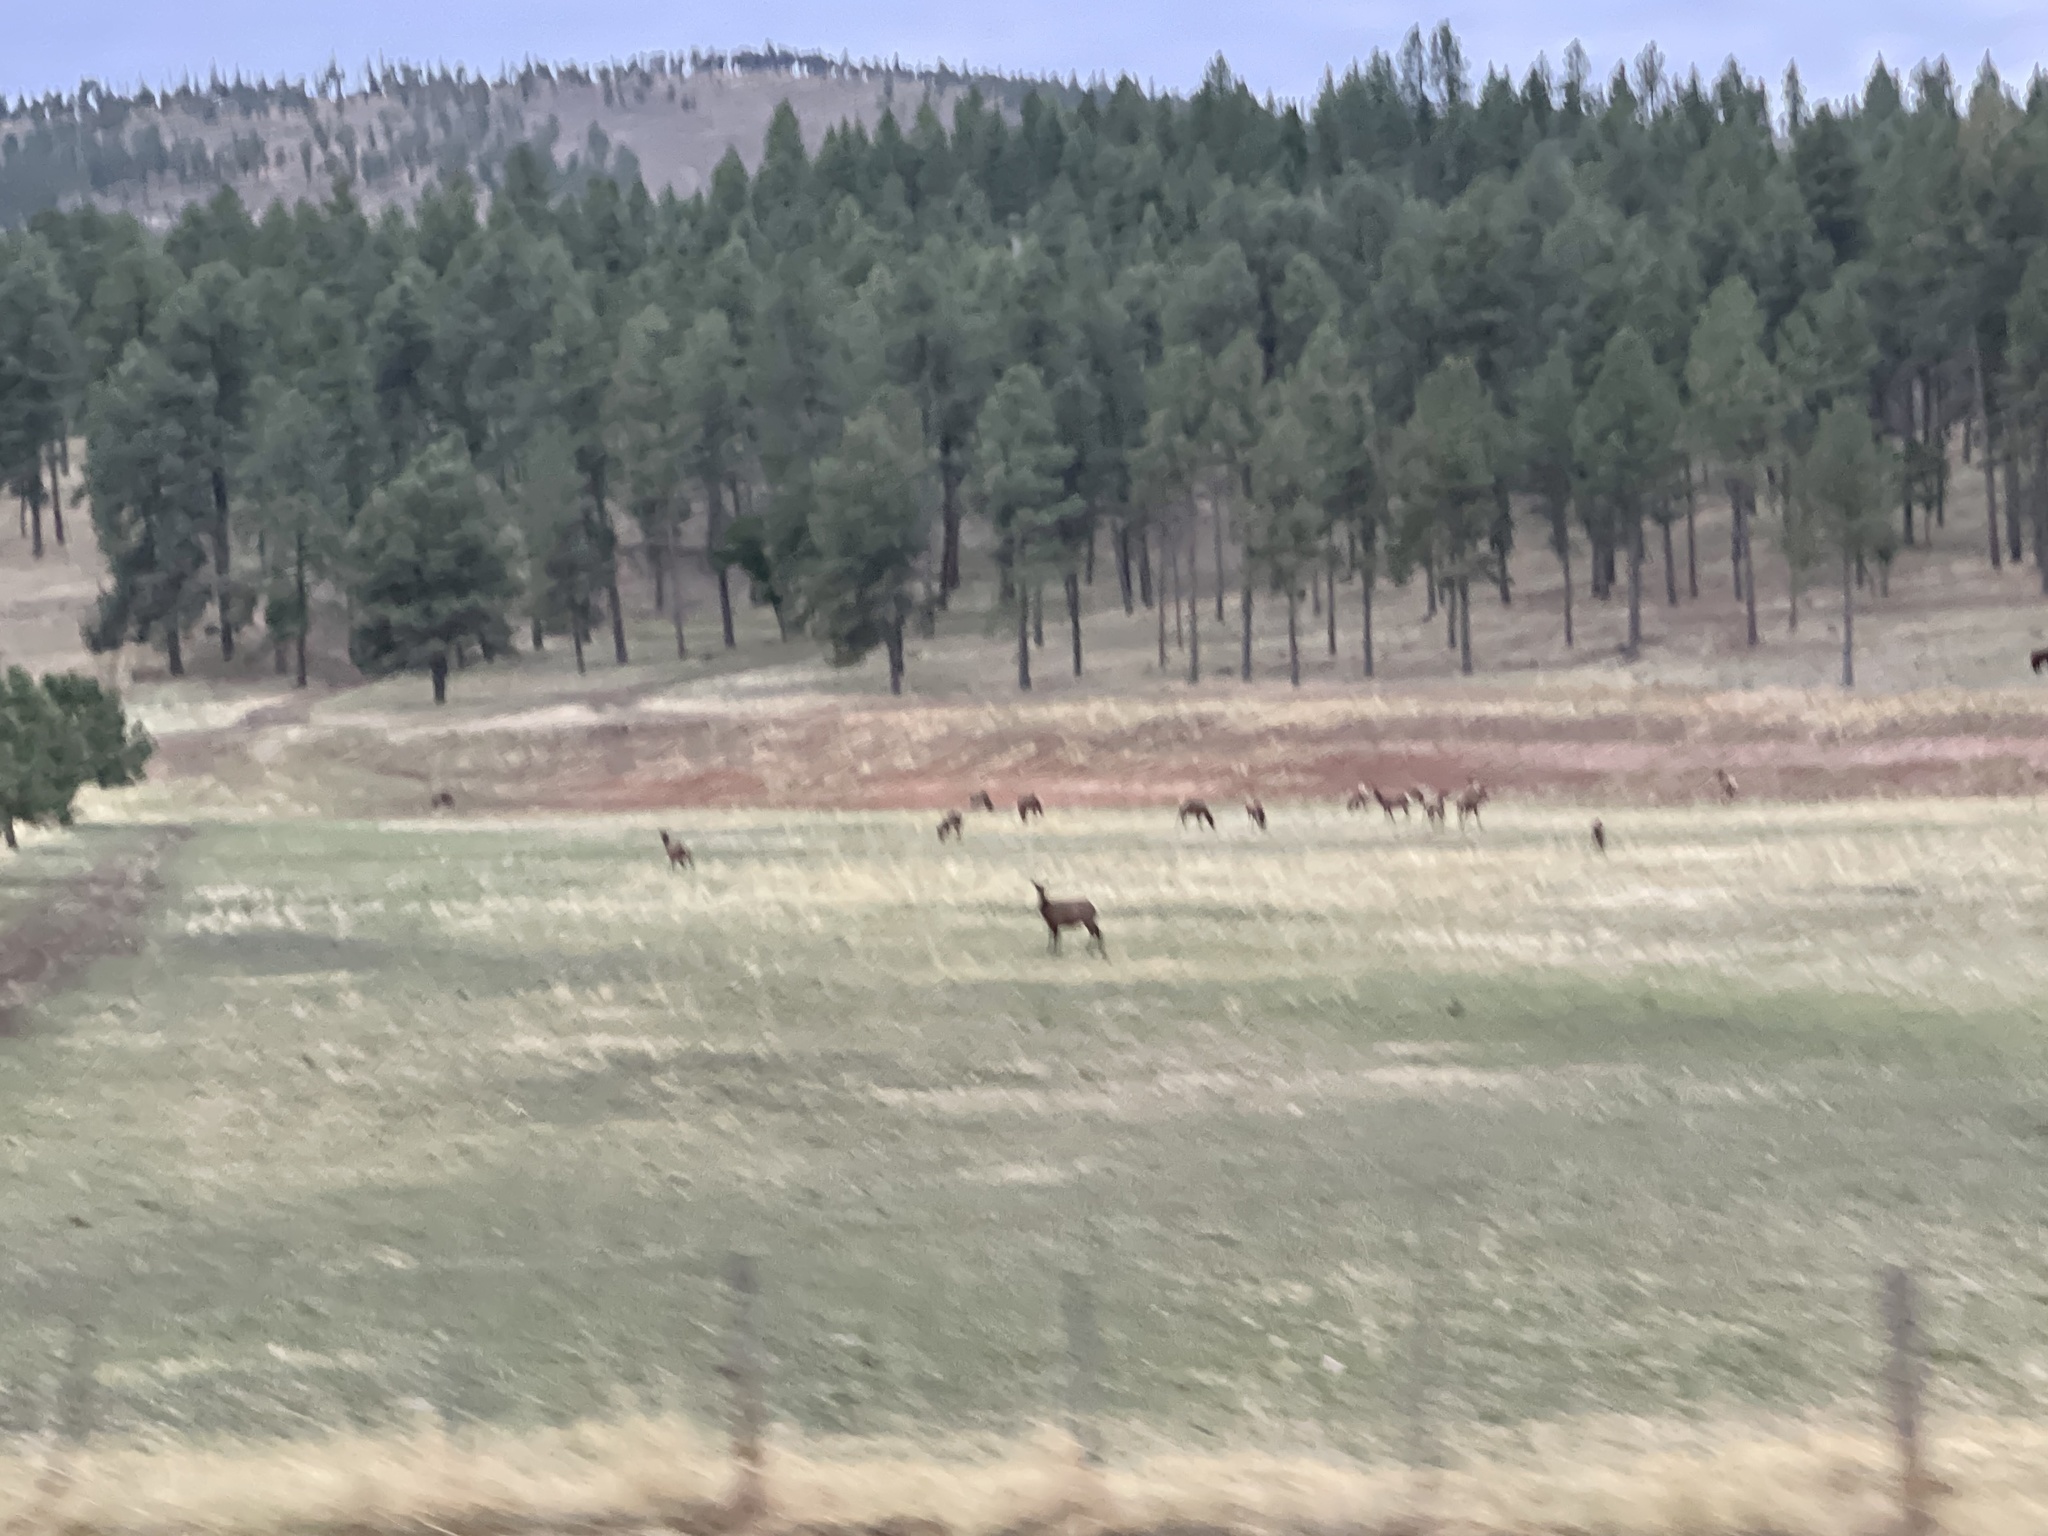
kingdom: Animalia
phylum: Chordata
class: Mammalia
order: Artiodactyla
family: Cervidae
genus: Cervus
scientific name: Cervus elaphus
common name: Red deer
